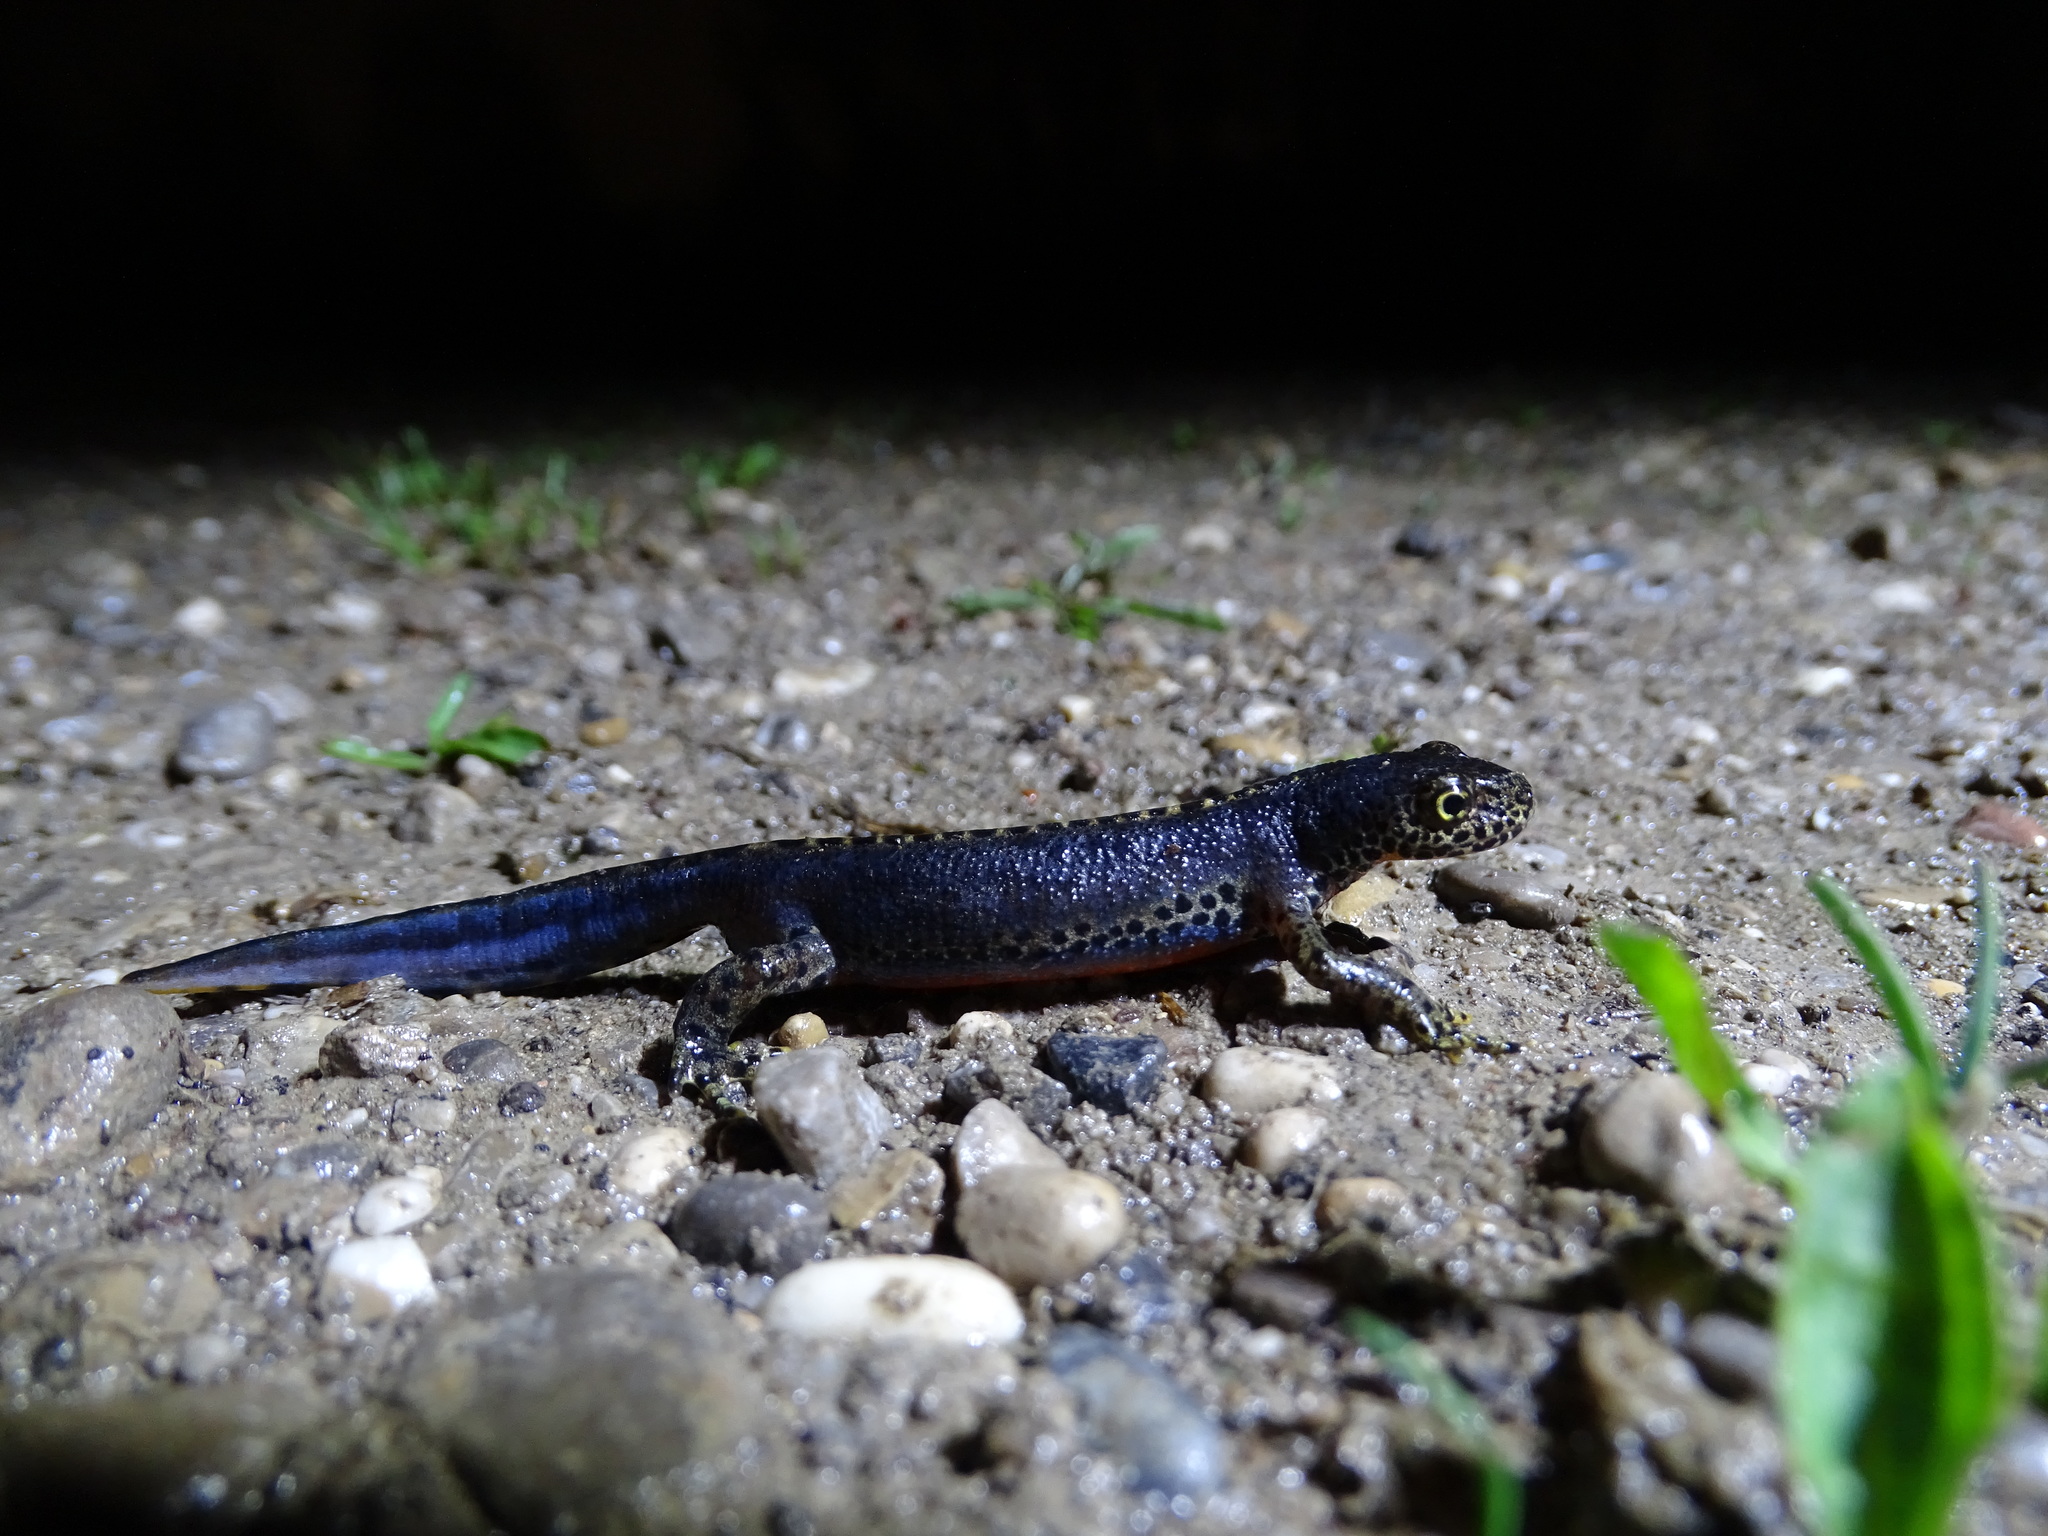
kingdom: Animalia
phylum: Chordata
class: Amphibia
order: Caudata
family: Salamandridae
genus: Ichthyosaura
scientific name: Ichthyosaura alpestris
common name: Alpine newt
